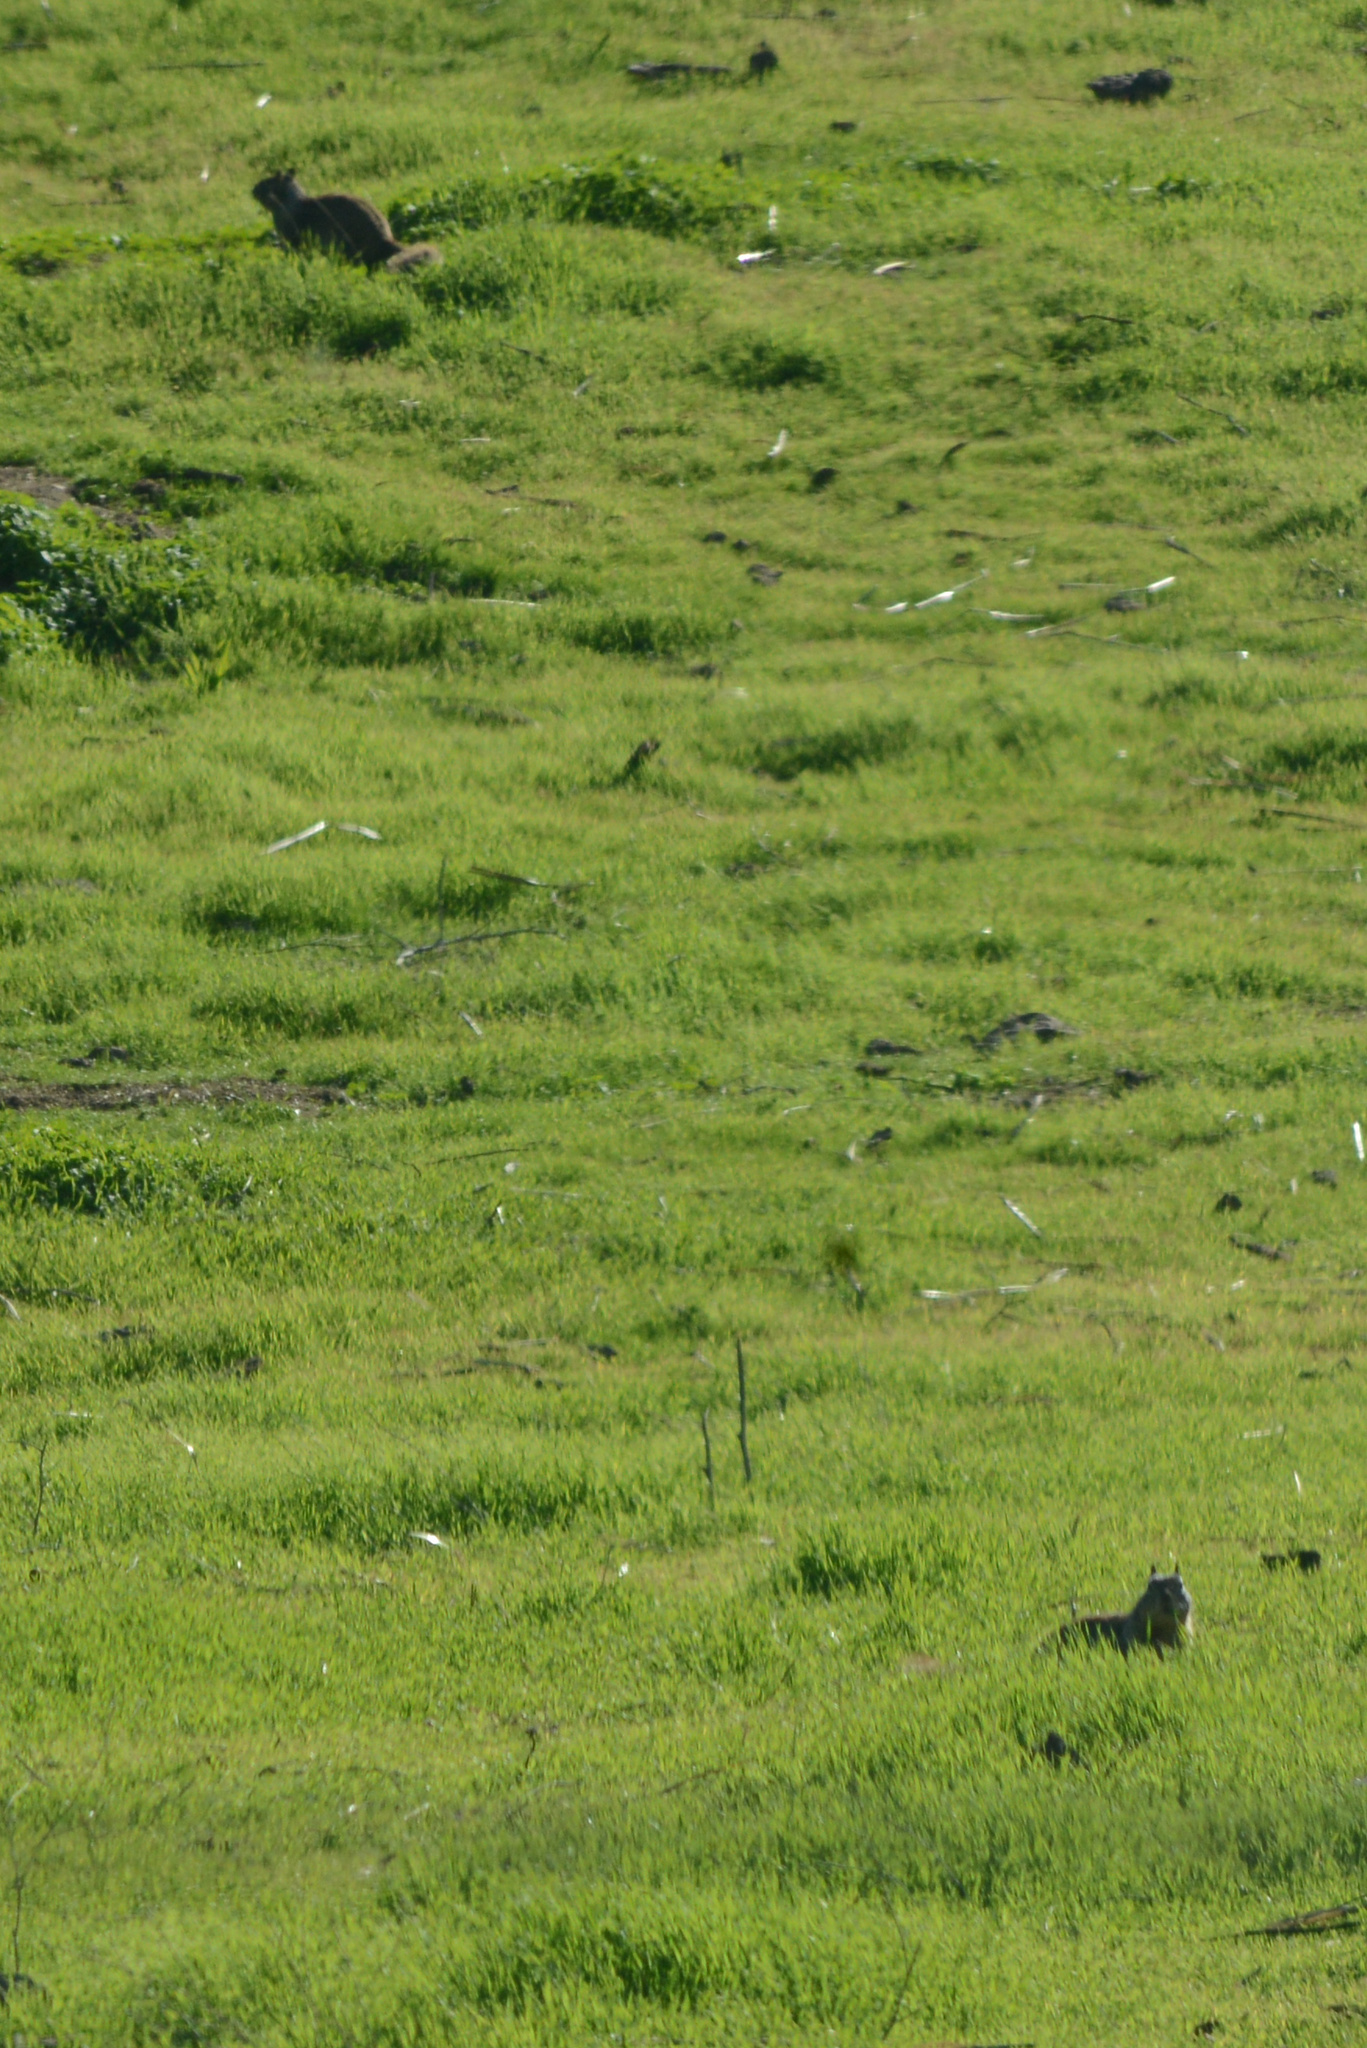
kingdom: Animalia
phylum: Chordata
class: Mammalia
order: Rodentia
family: Sciuridae
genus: Otospermophilus
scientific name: Otospermophilus beecheyi
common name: California ground squirrel
